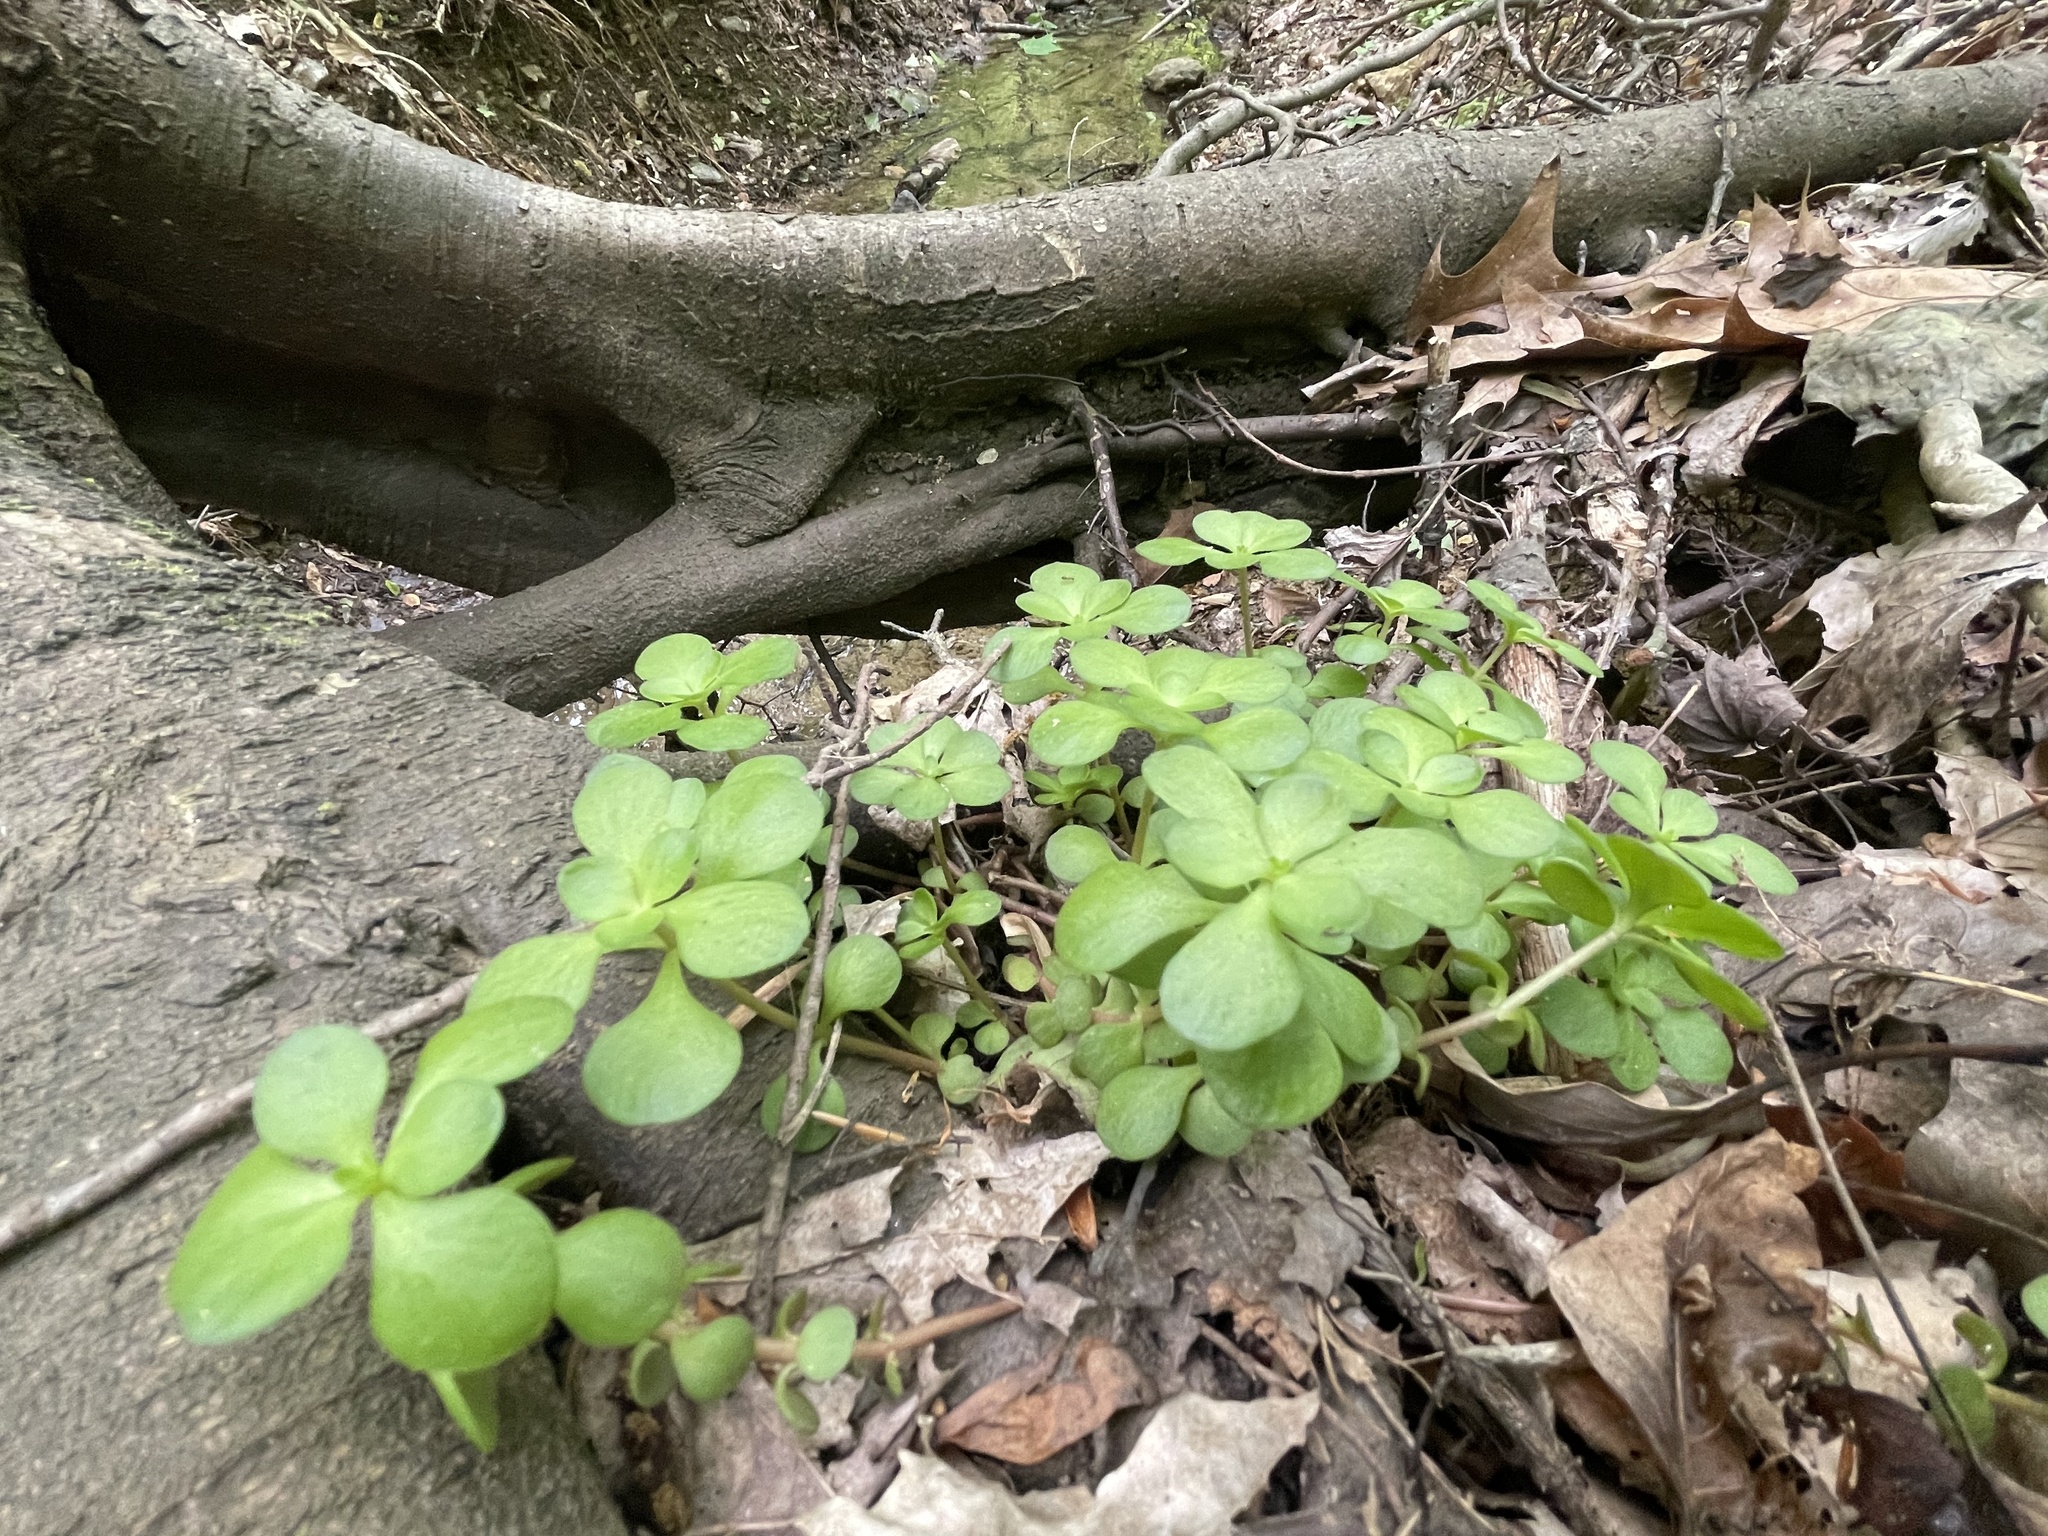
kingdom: Plantae
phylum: Tracheophyta
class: Magnoliopsida
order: Saxifragales
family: Crassulaceae
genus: Sedum
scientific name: Sedum ternatum
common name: Wild stonecrop
